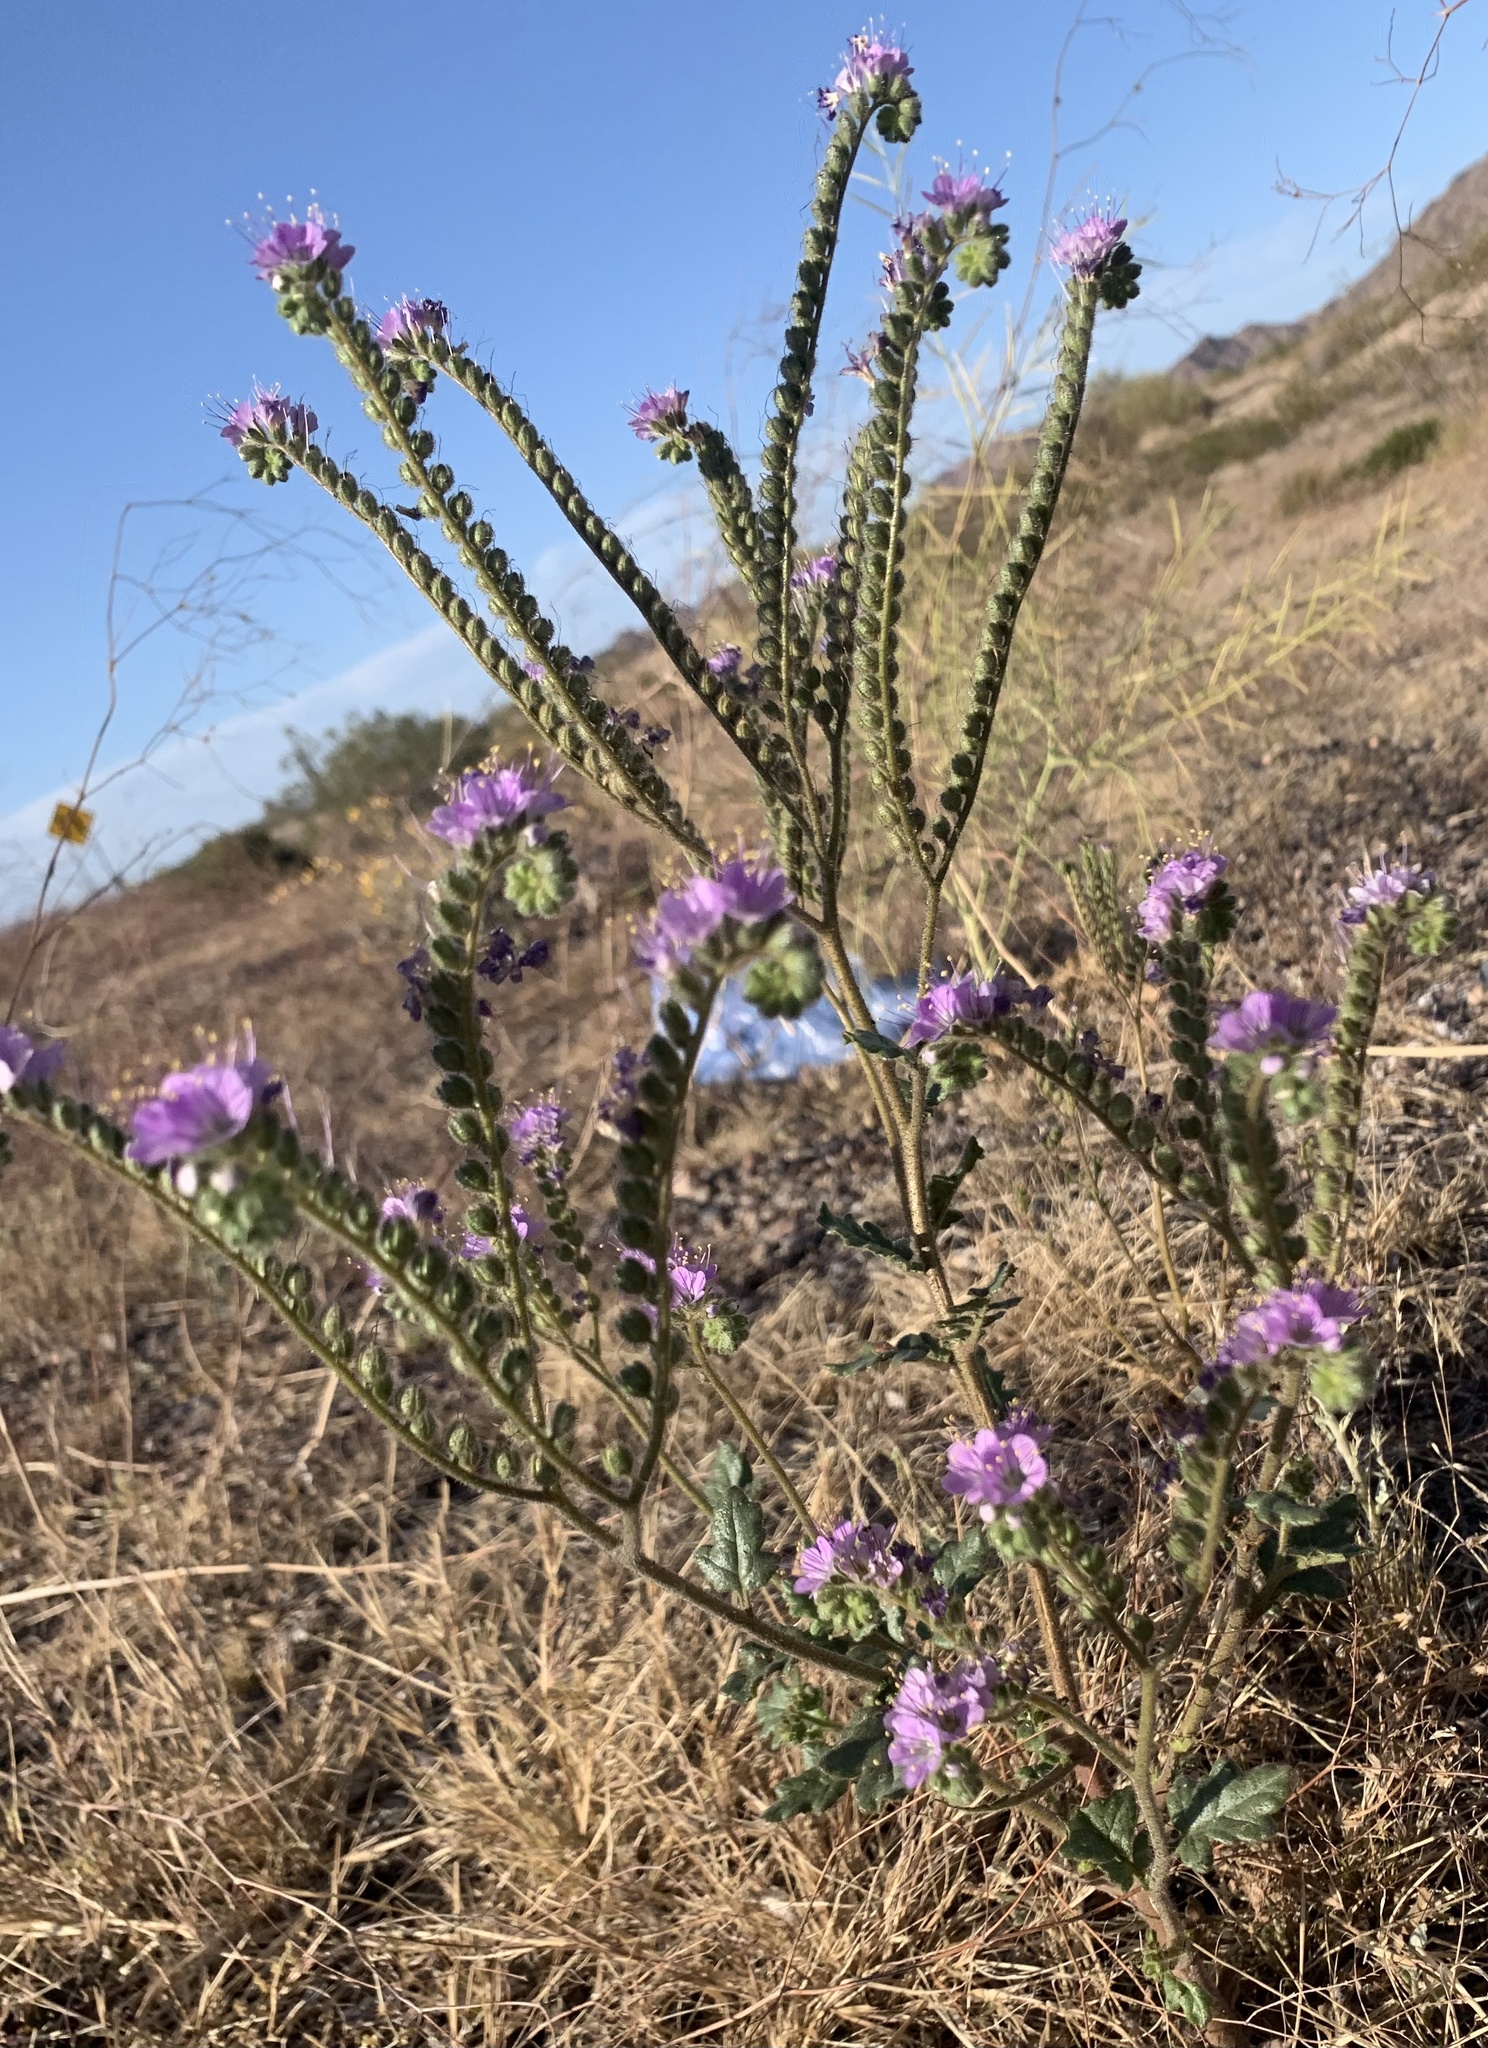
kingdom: Plantae
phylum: Tracheophyta
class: Magnoliopsida
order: Boraginales
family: Hydrophyllaceae
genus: Phacelia
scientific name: Phacelia crenulata
